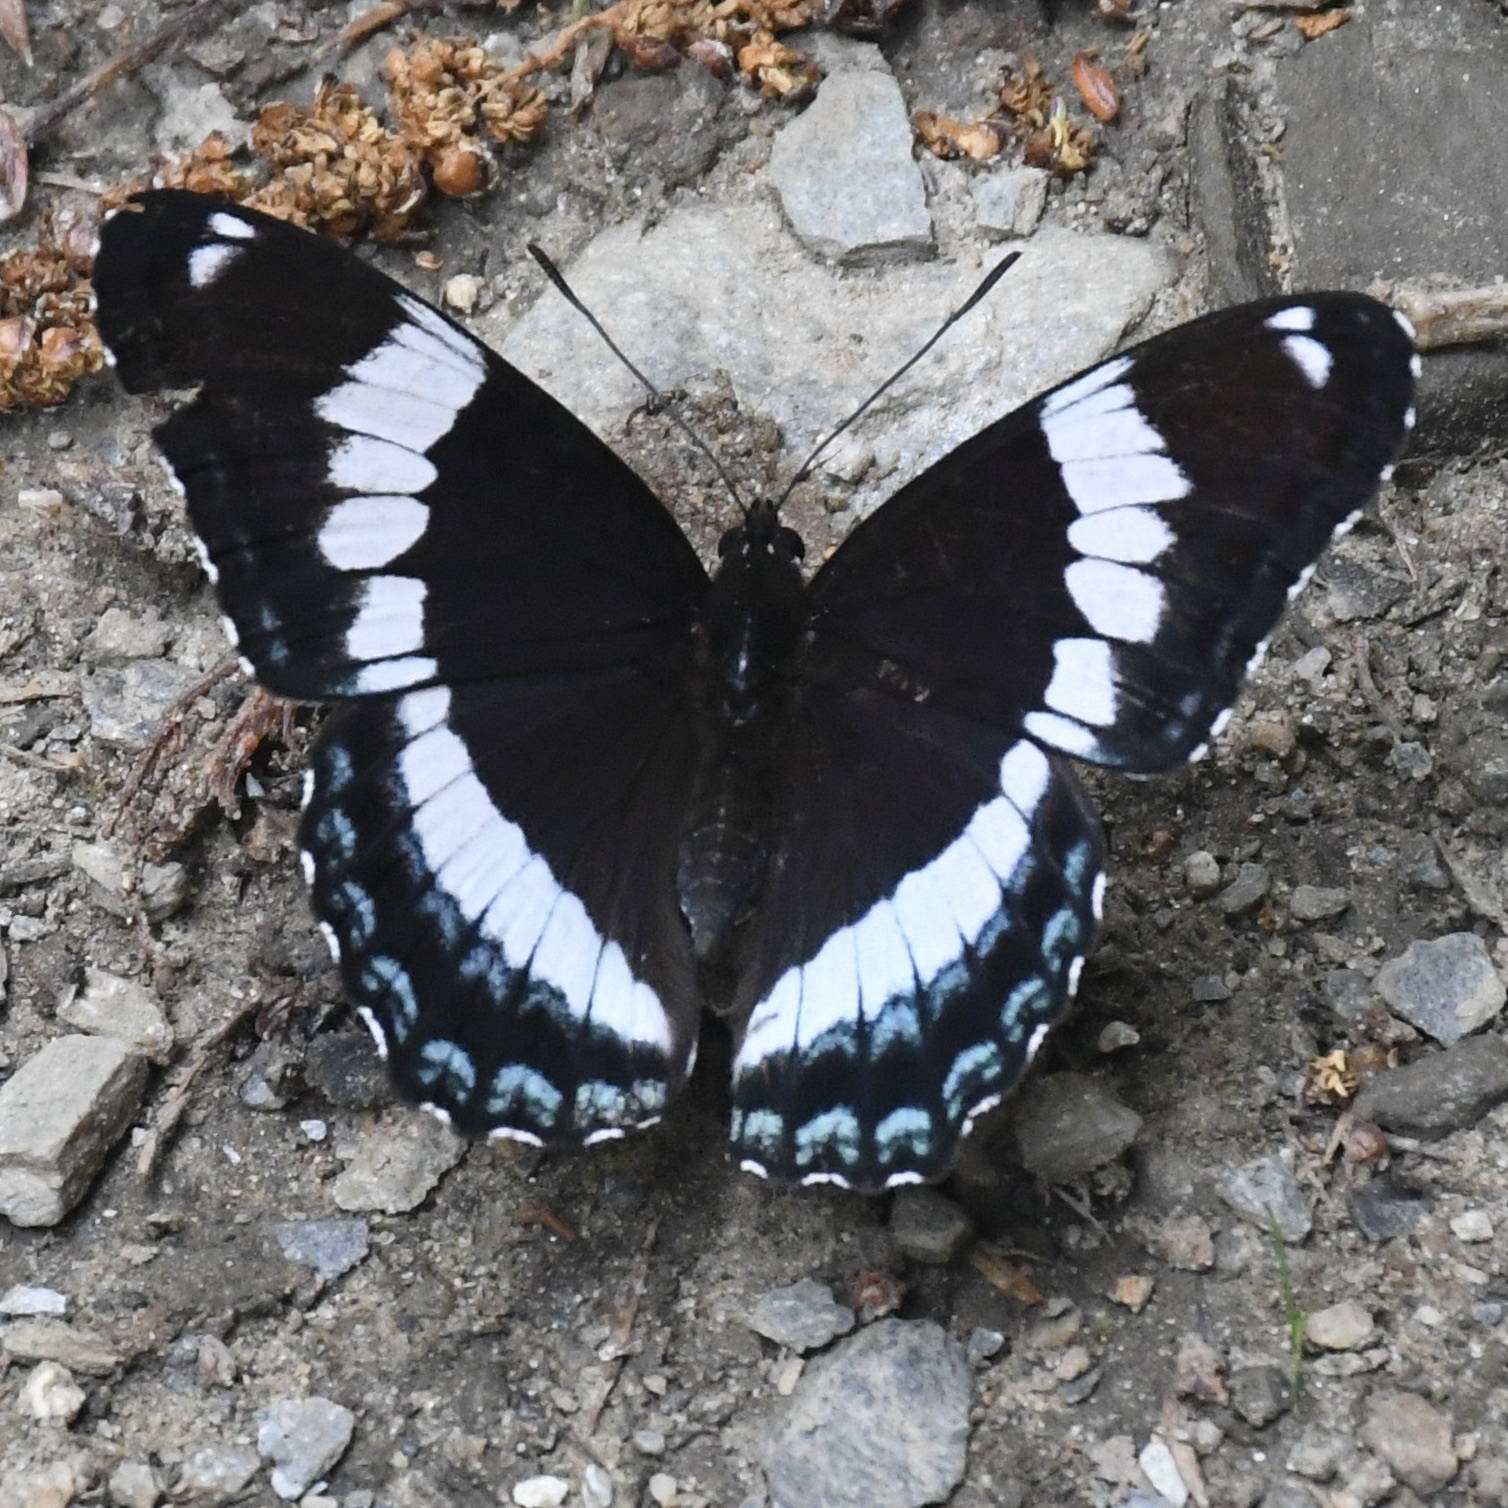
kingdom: Animalia
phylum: Arthropoda
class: Insecta
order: Lepidoptera
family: Nymphalidae
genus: Limenitis
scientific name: Limenitis arthemis
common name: Red-spotted admiral
